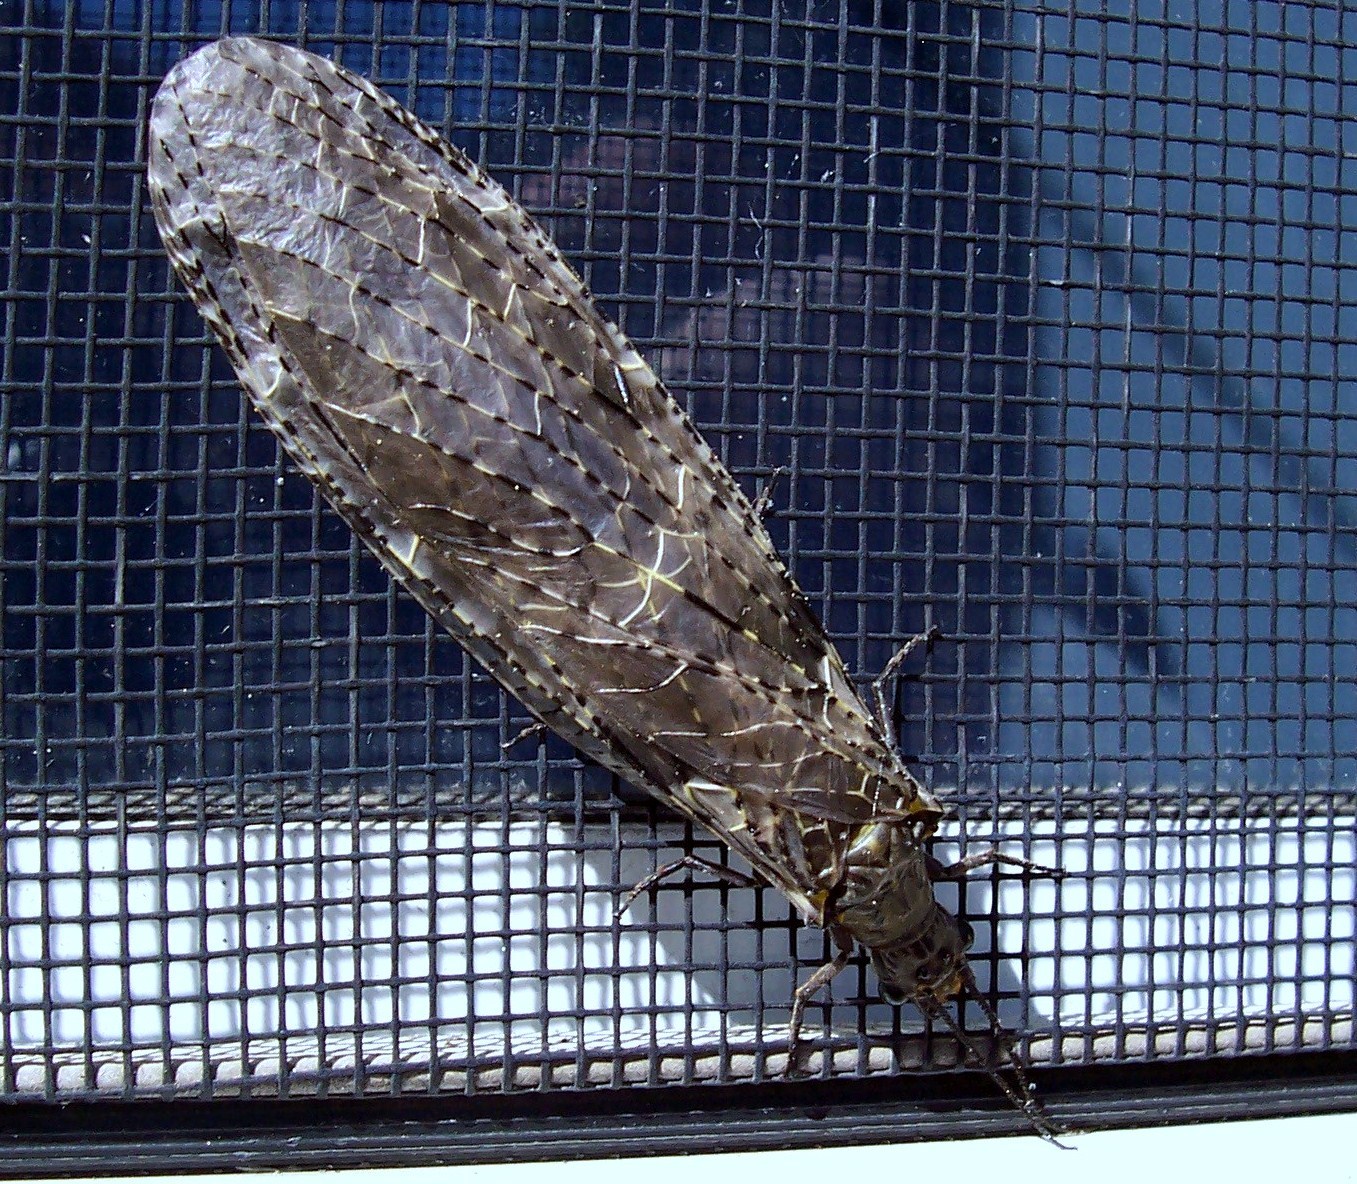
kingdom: Animalia
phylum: Arthropoda
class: Insecta
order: Megaloptera
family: Corydalidae
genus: Chauliodes
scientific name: Chauliodes rastricornis
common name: Spring fishfly
